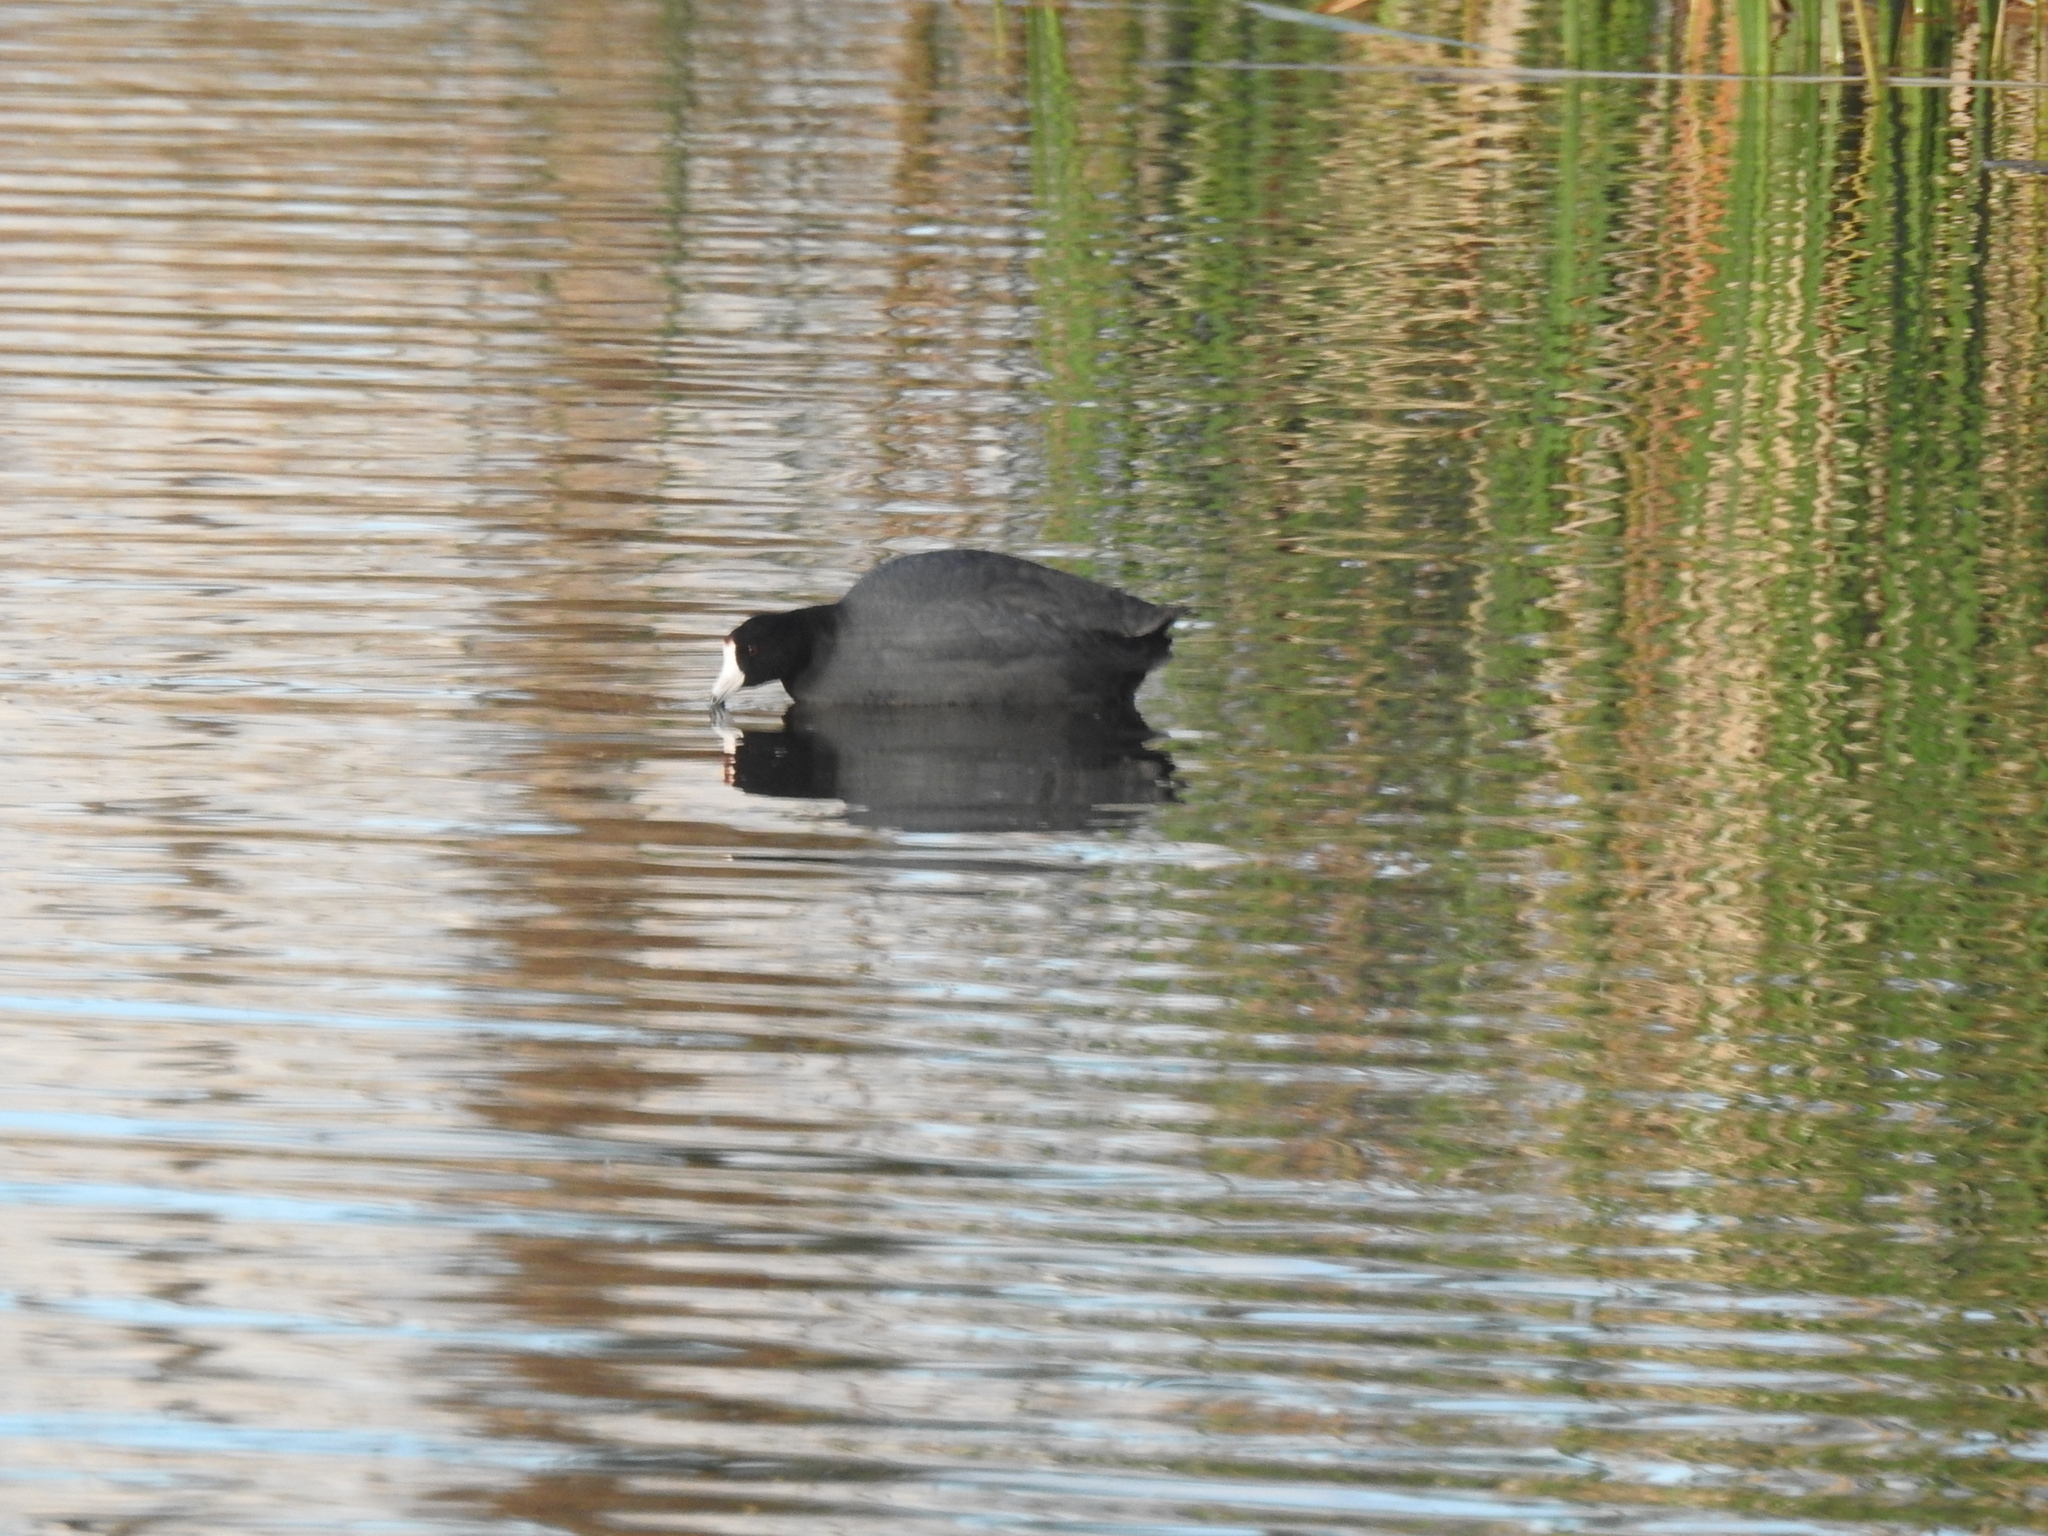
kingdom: Animalia
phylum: Chordata
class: Aves
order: Gruiformes
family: Rallidae
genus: Fulica
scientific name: Fulica americana
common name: American coot
